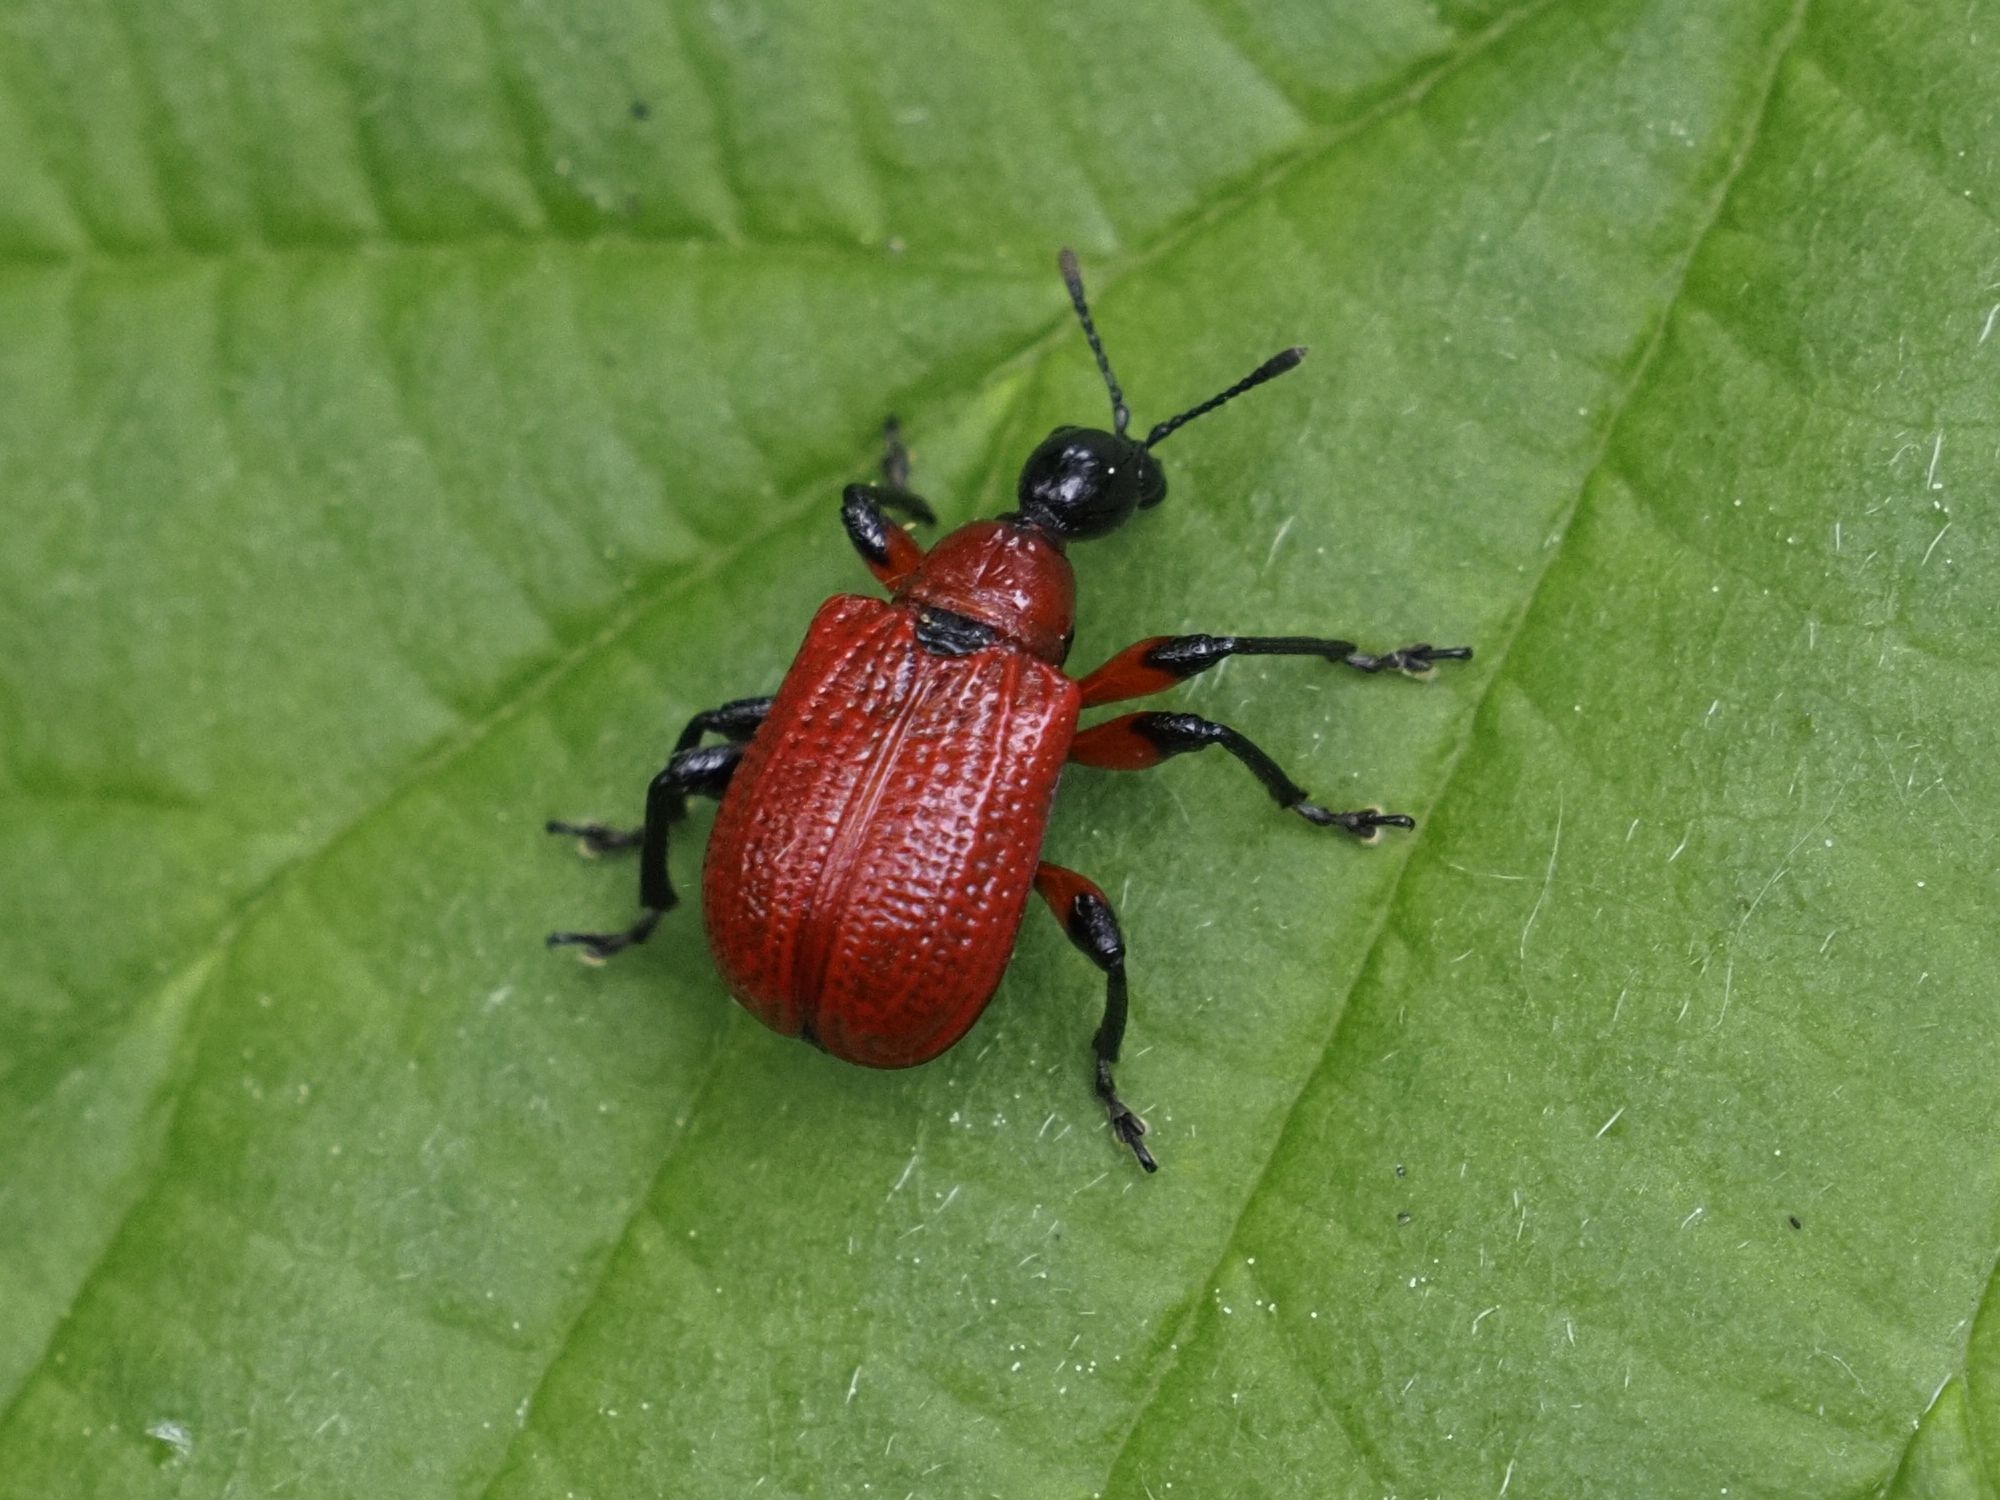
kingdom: Animalia
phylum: Arthropoda
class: Insecta
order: Coleoptera
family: Attelabidae
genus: Apoderus
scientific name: Apoderus coryli
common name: Hazel leaf roller
